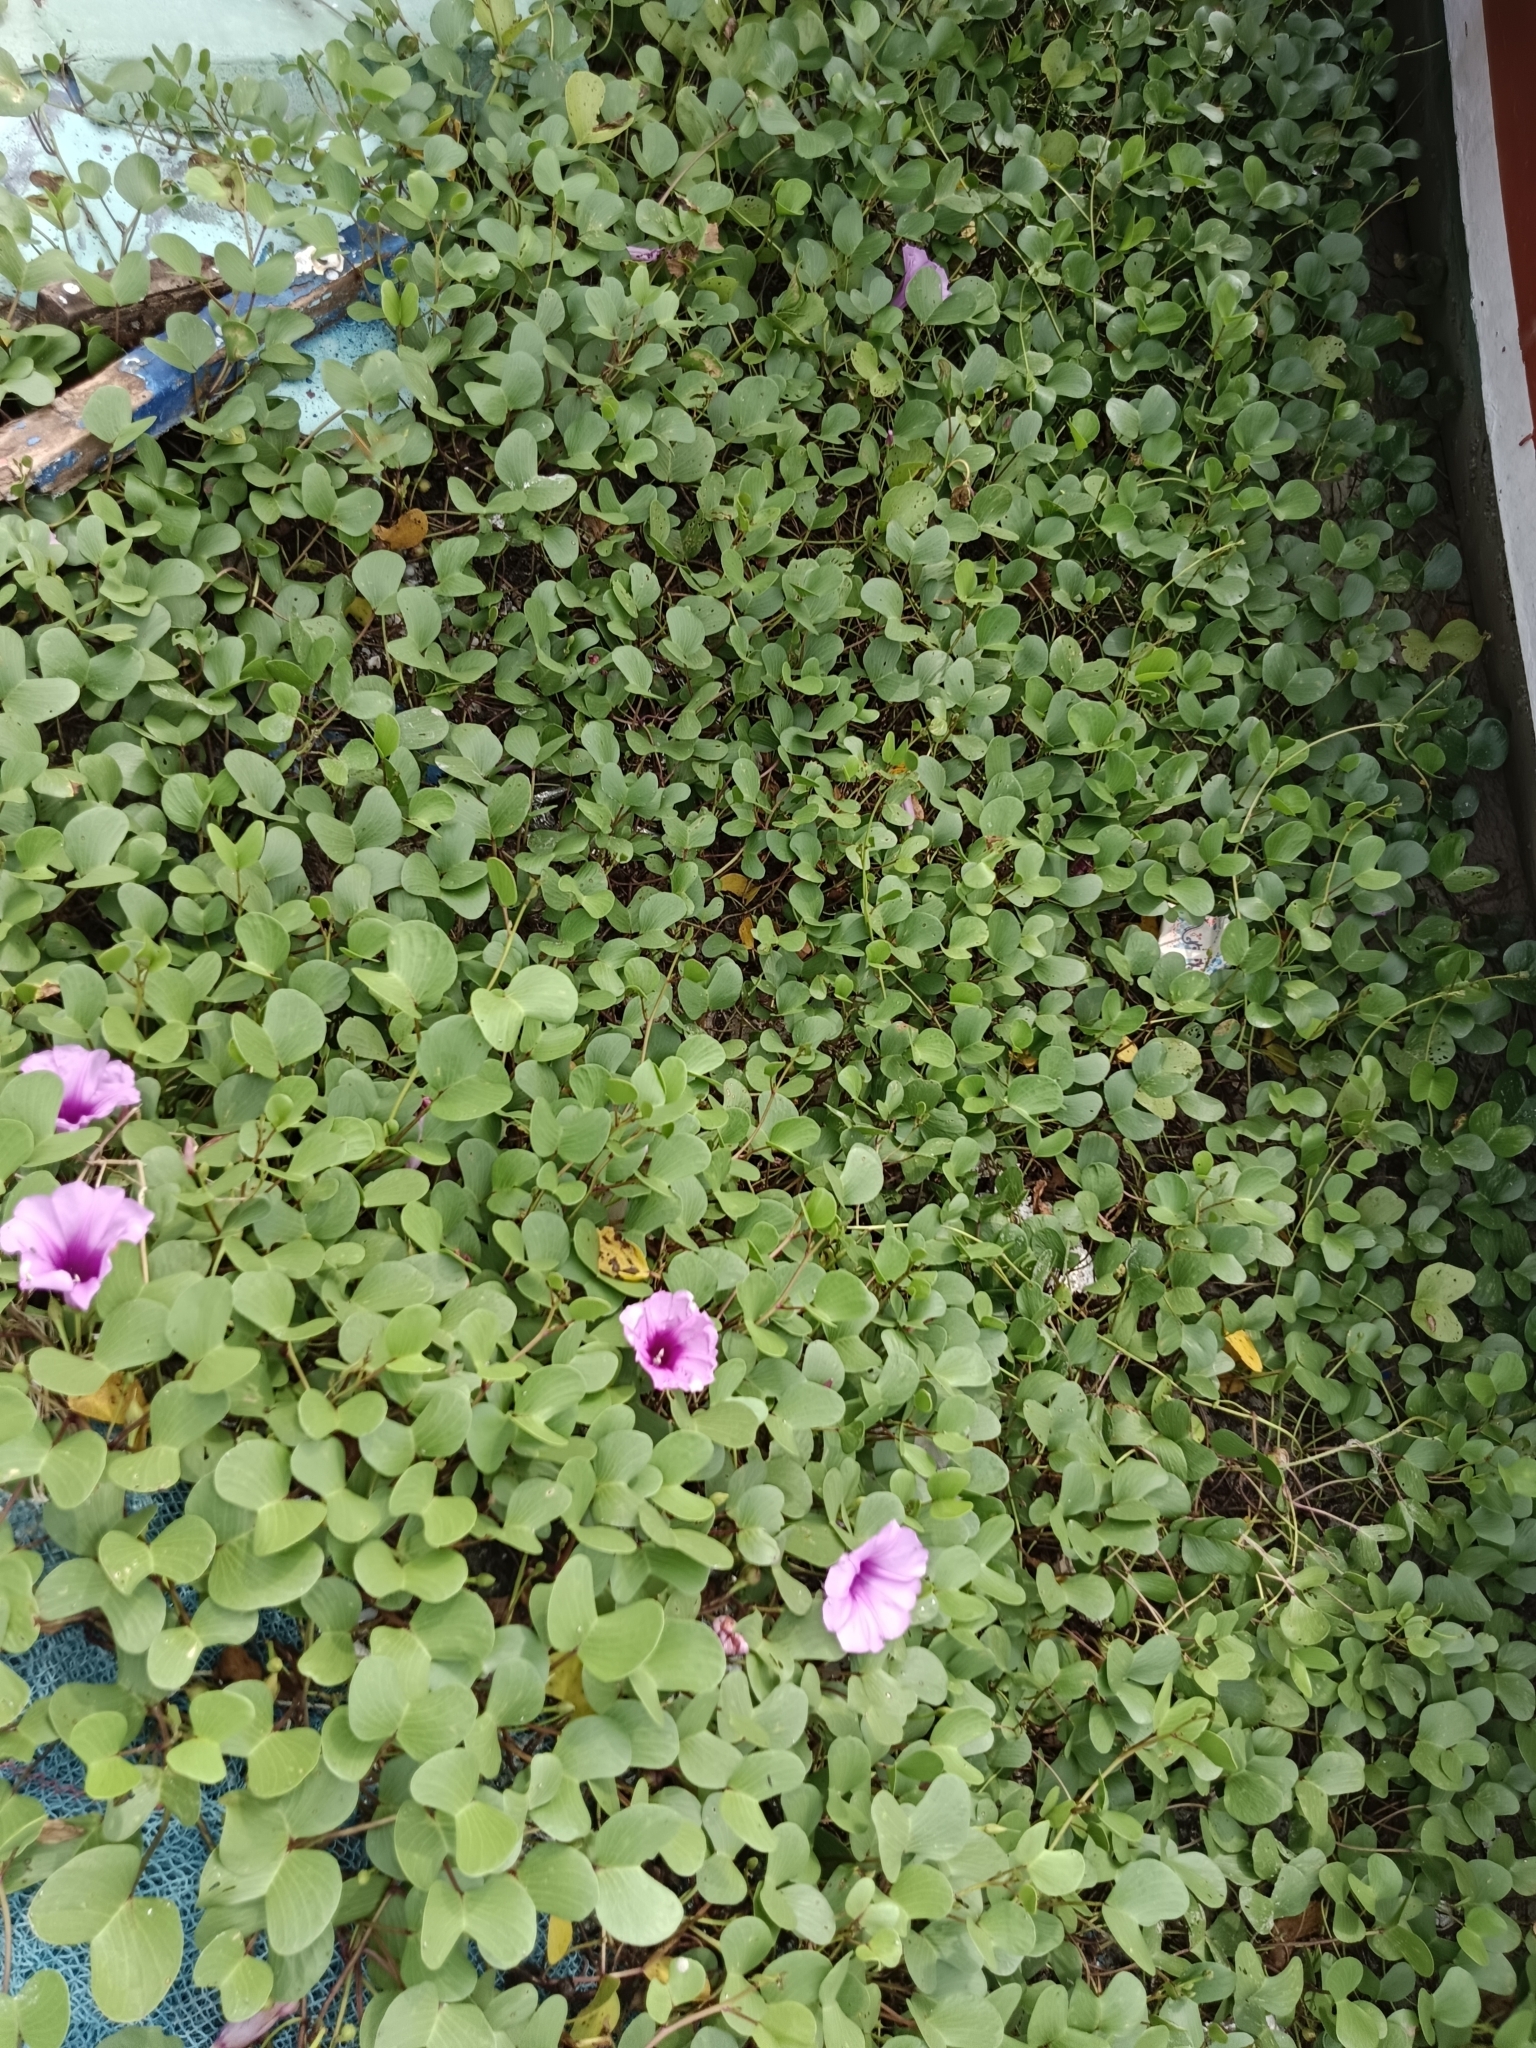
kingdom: Plantae
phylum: Tracheophyta
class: Magnoliopsida
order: Solanales
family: Convolvulaceae
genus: Ipomoea
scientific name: Ipomoea pes-caprae
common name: Beach morning glory
